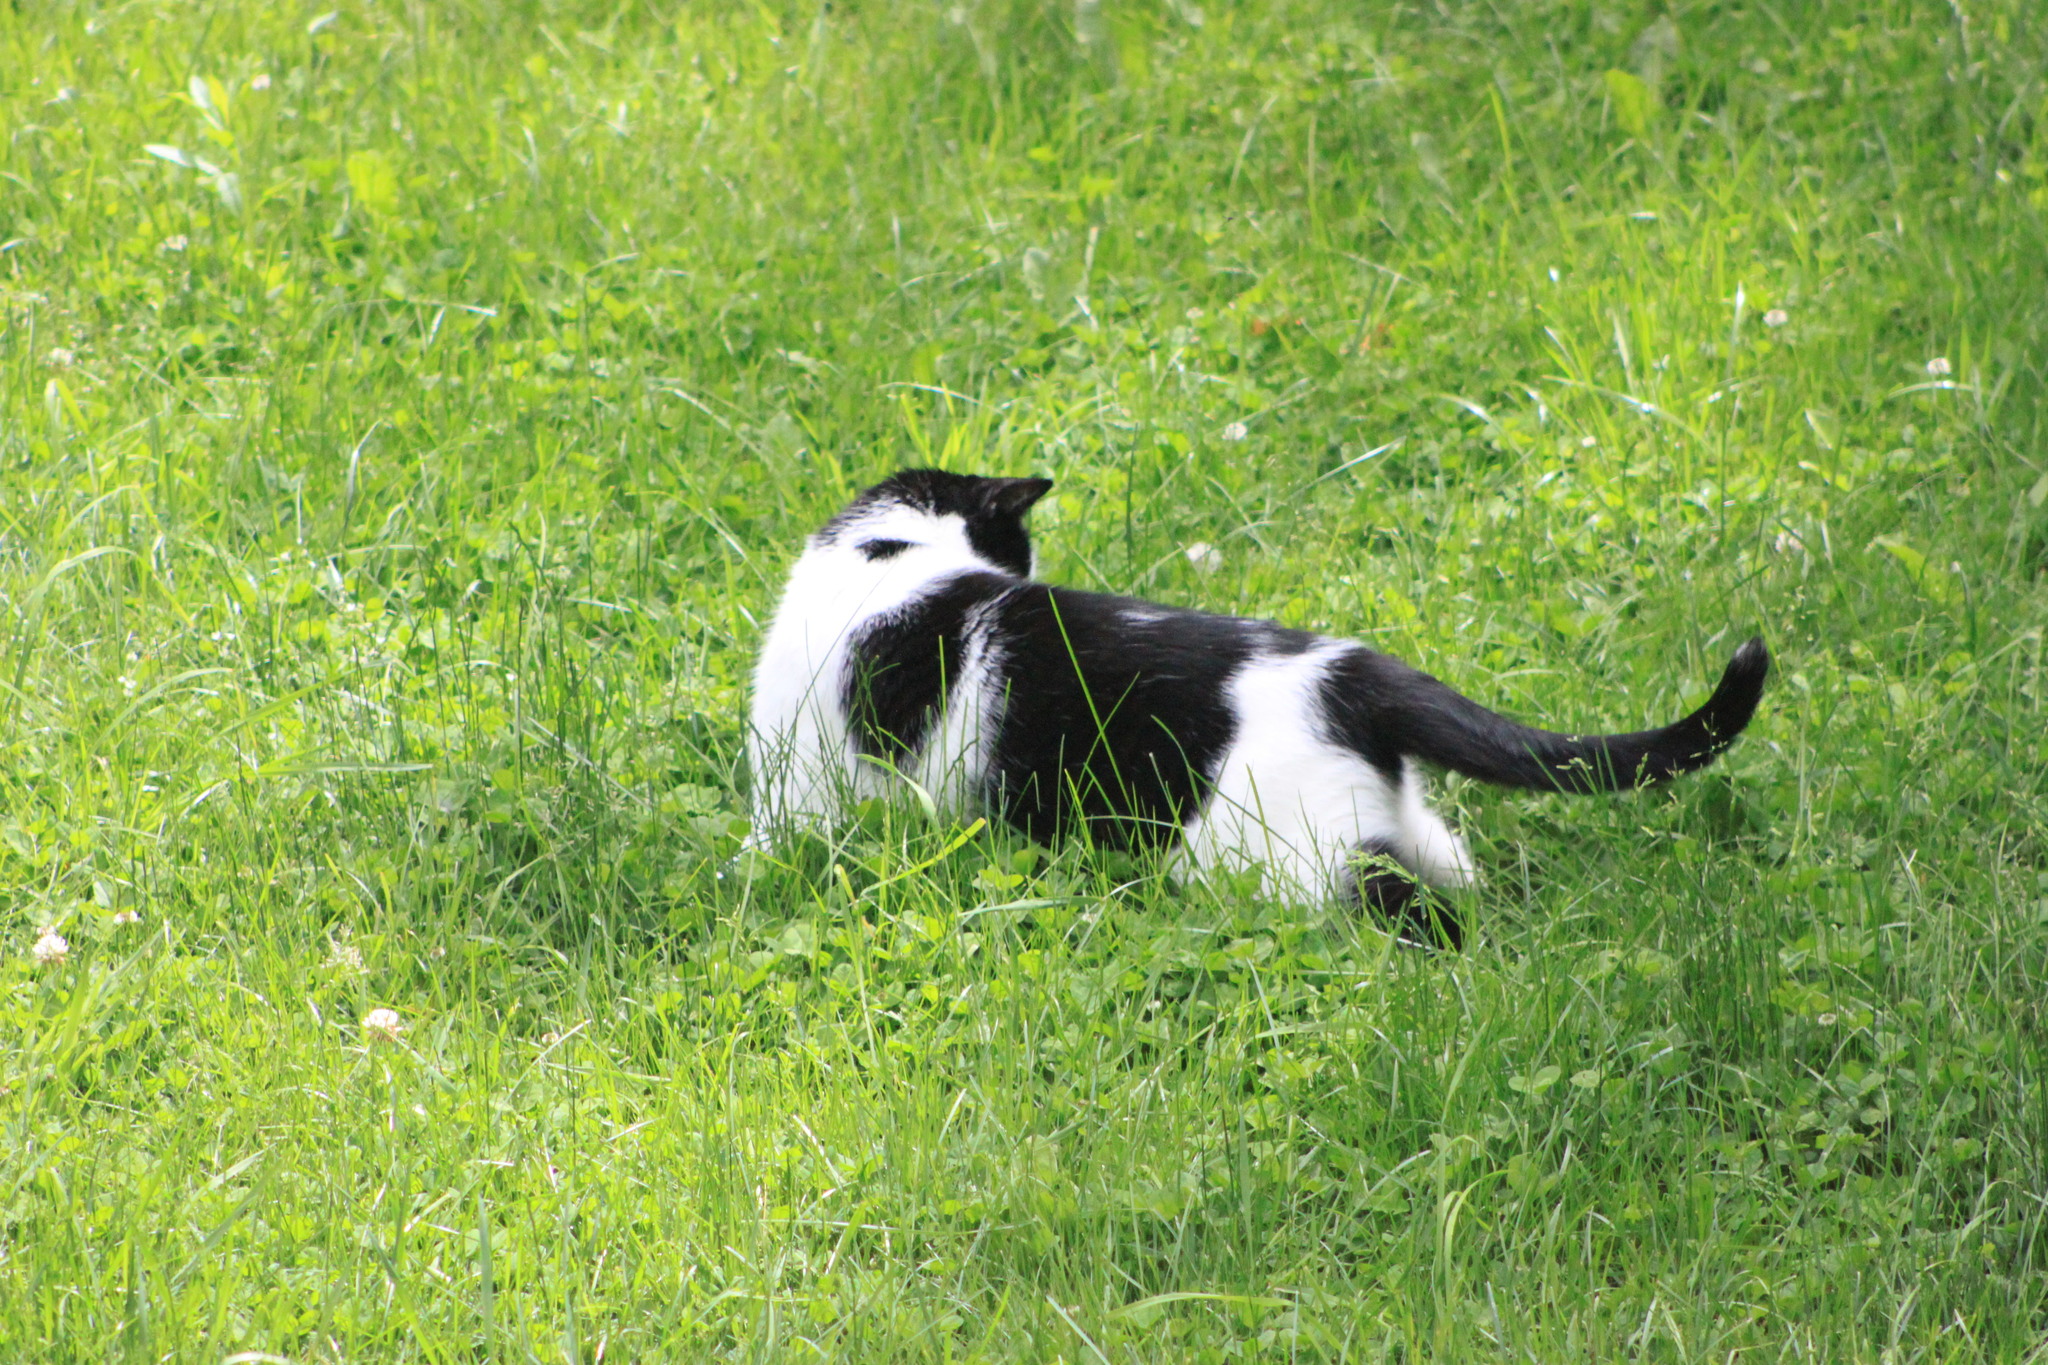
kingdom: Animalia
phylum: Chordata
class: Mammalia
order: Carnivora
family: Felidae
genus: Felis
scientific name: Felis catus
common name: Domestic cat
